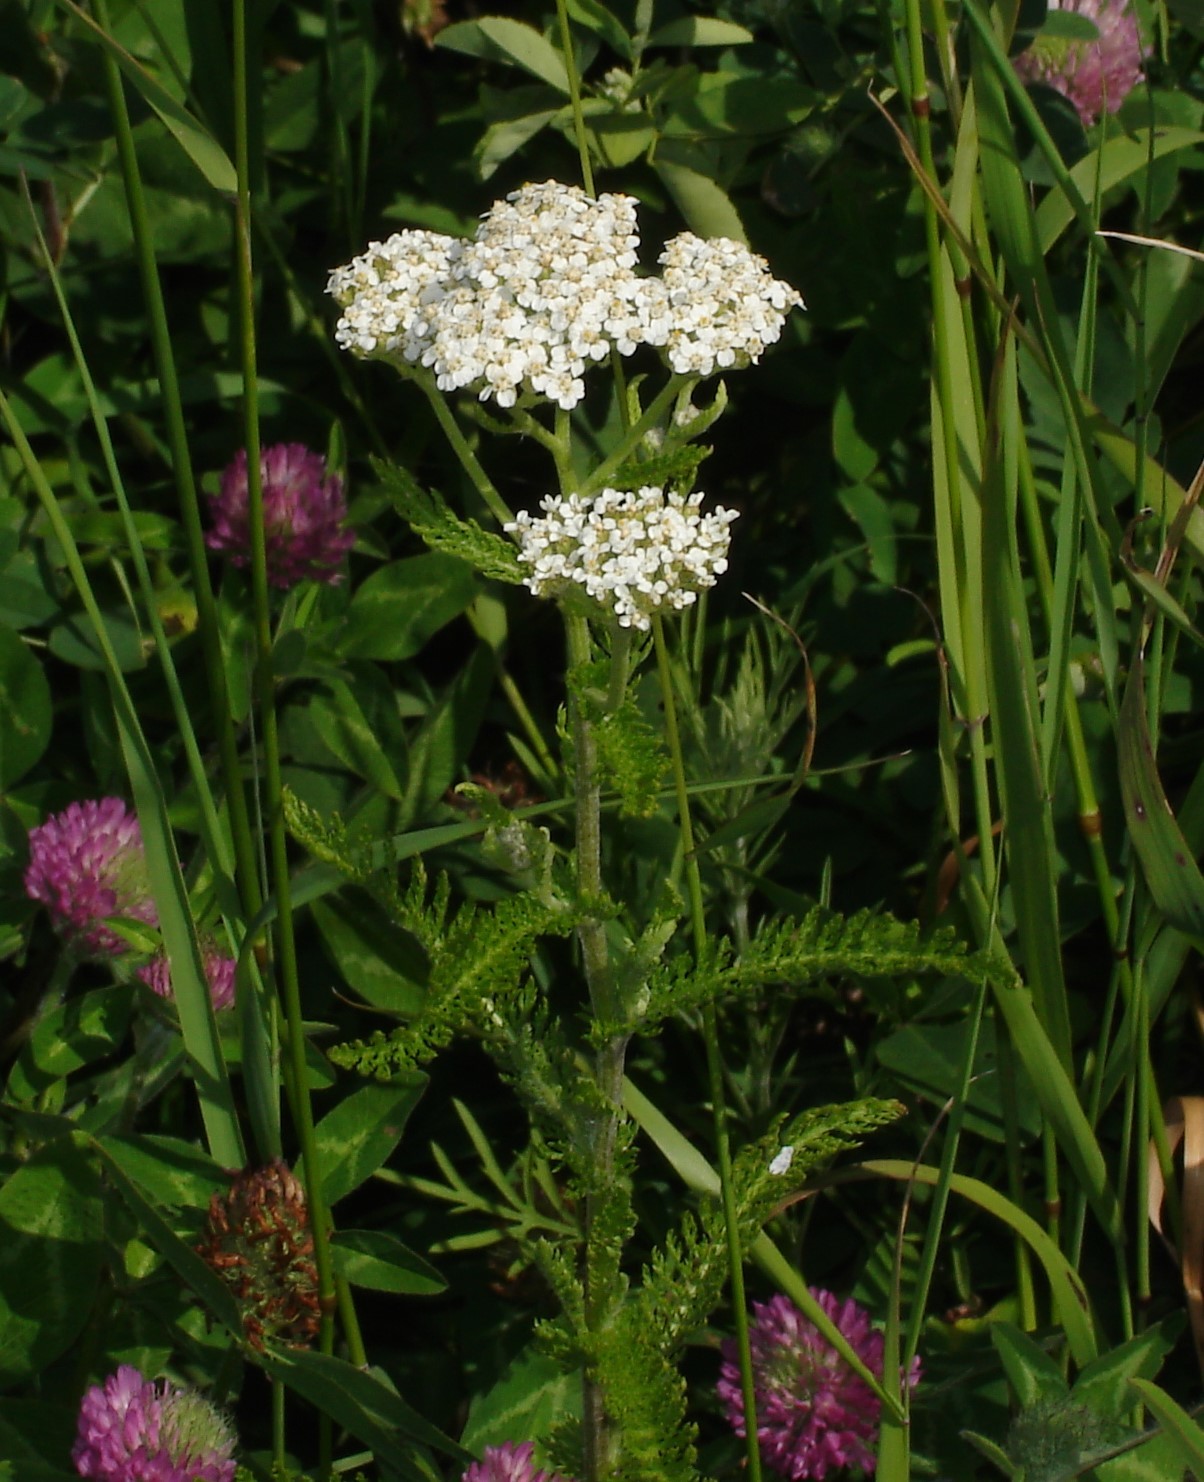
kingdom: Plantae
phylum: Tracheophyta
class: Magnoliopsida
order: Asterales
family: Asteraceae
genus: Achillea
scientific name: Achillea millefolium
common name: Yarrow
